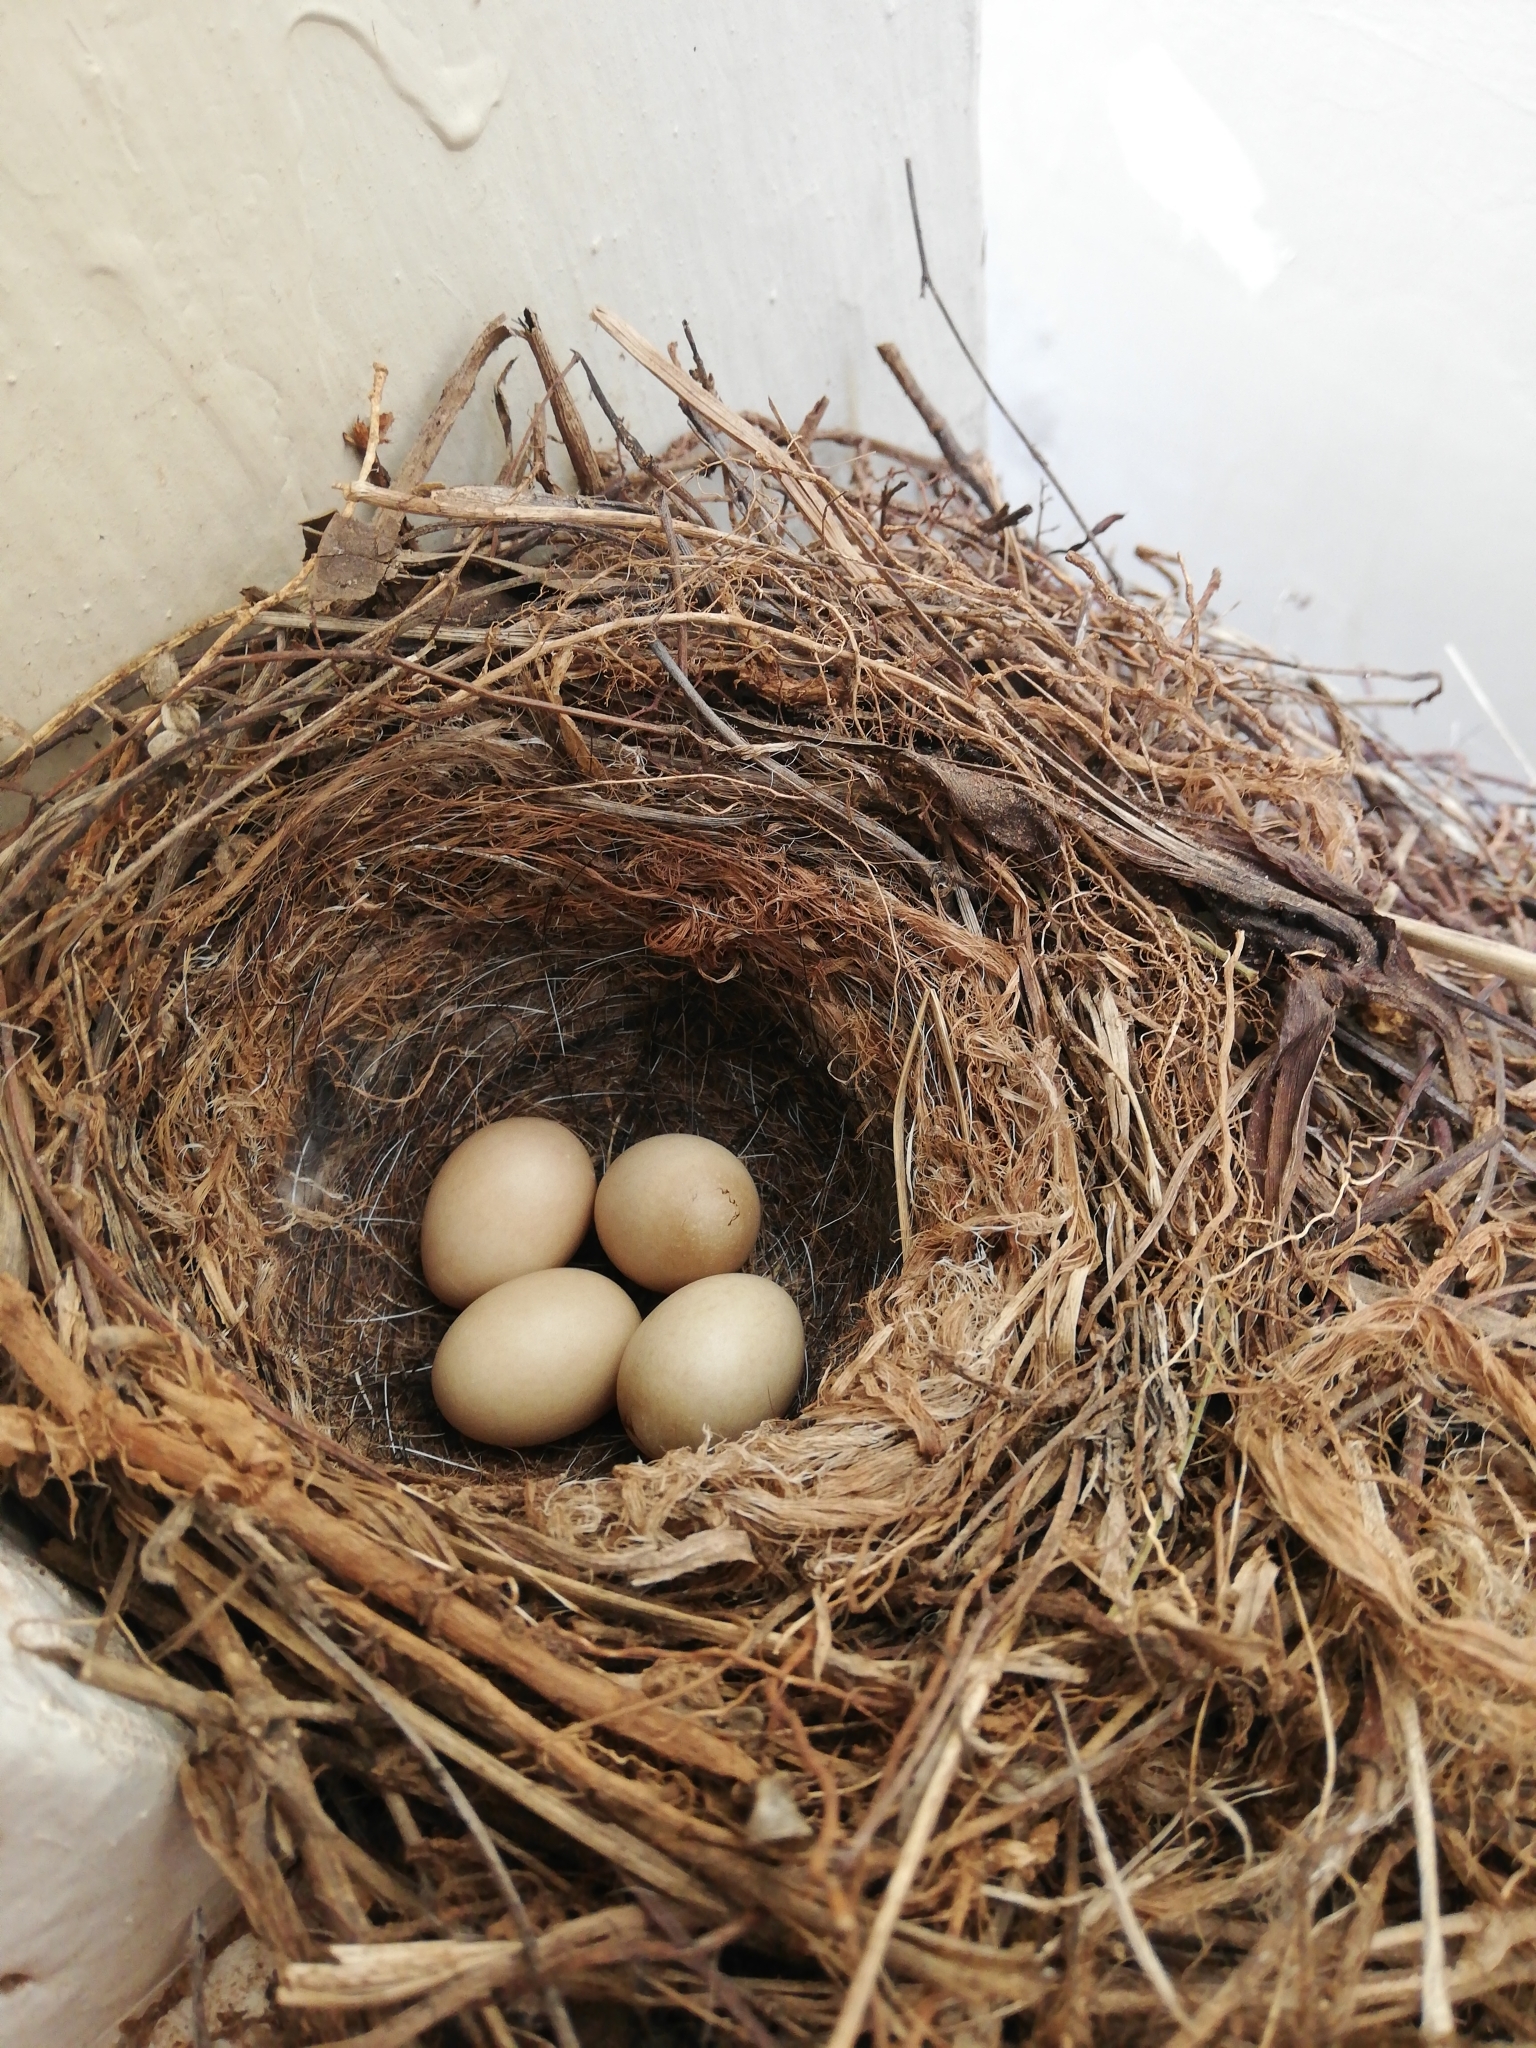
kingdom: Animalia
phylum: Chordata
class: Aves
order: Passeriformes
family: Motacillidae
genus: Motacilla
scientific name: Motacilla capensis
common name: Cape wagtail
